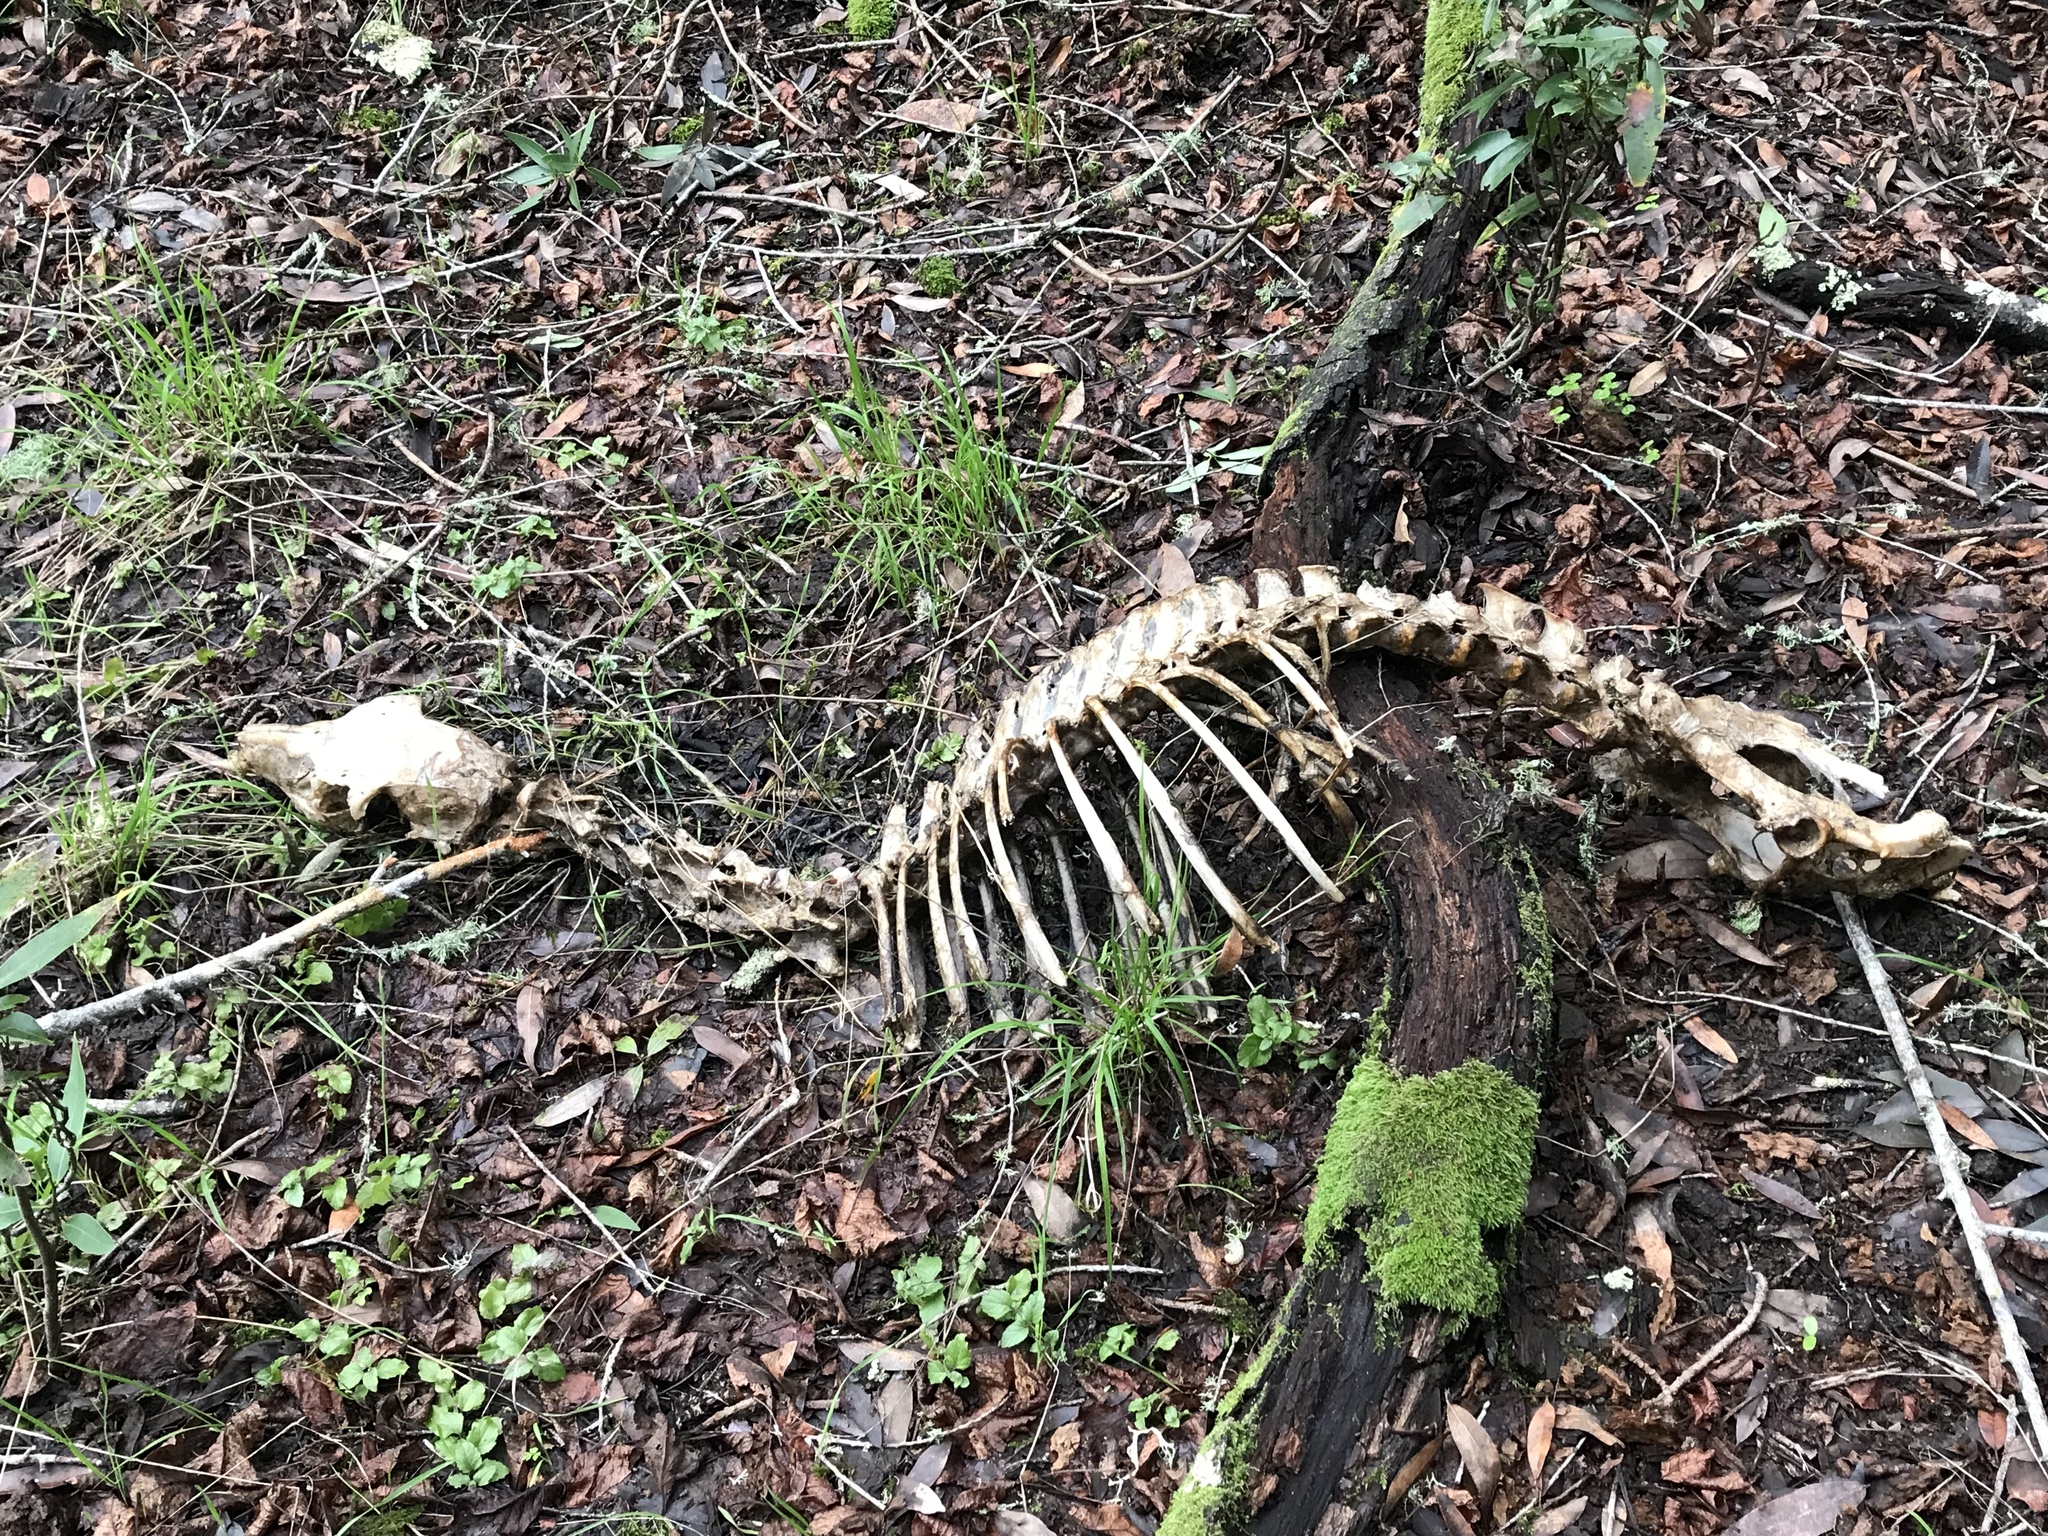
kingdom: Animalia
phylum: Chordata
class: Mammalia
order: Artiodactyla
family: Cervidae
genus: Odocoileus
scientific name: Odocoileus hemionus
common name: Mule deer
